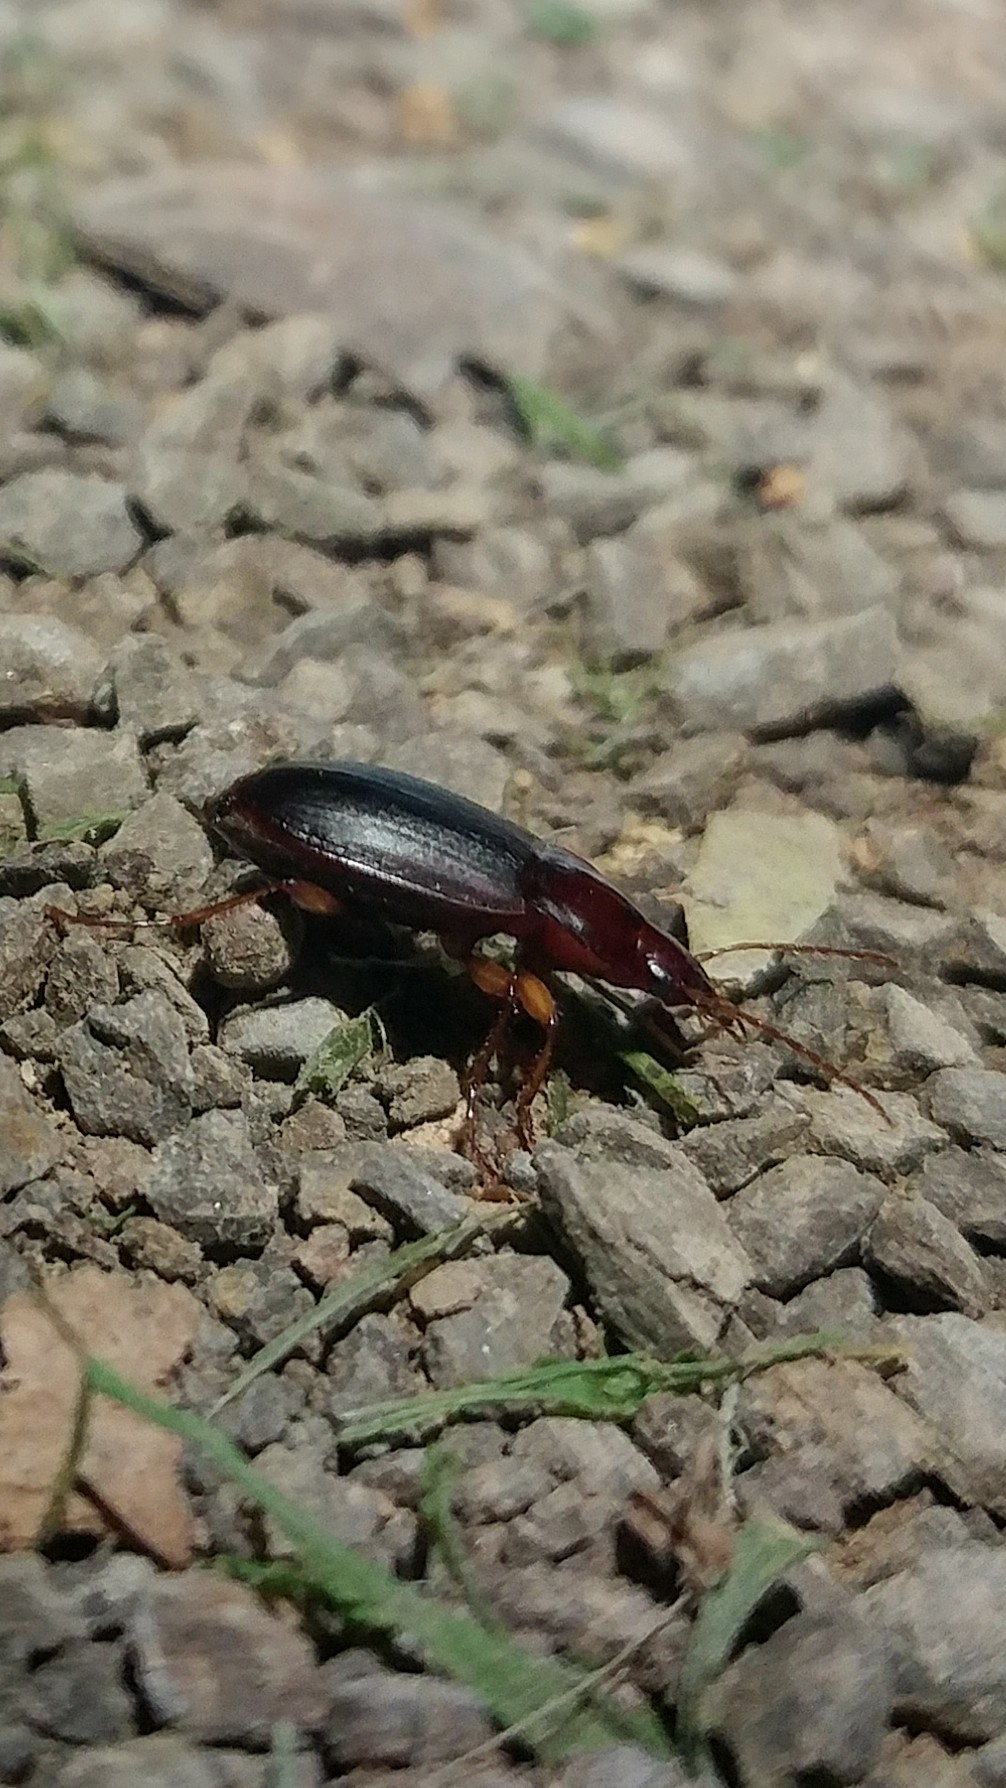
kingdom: Animalia
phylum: Arthropoda
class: Insecta
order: Coleoptera
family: Carabidae
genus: Calathus
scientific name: Calathus ruficollis
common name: Red-collared harp ground beetle
